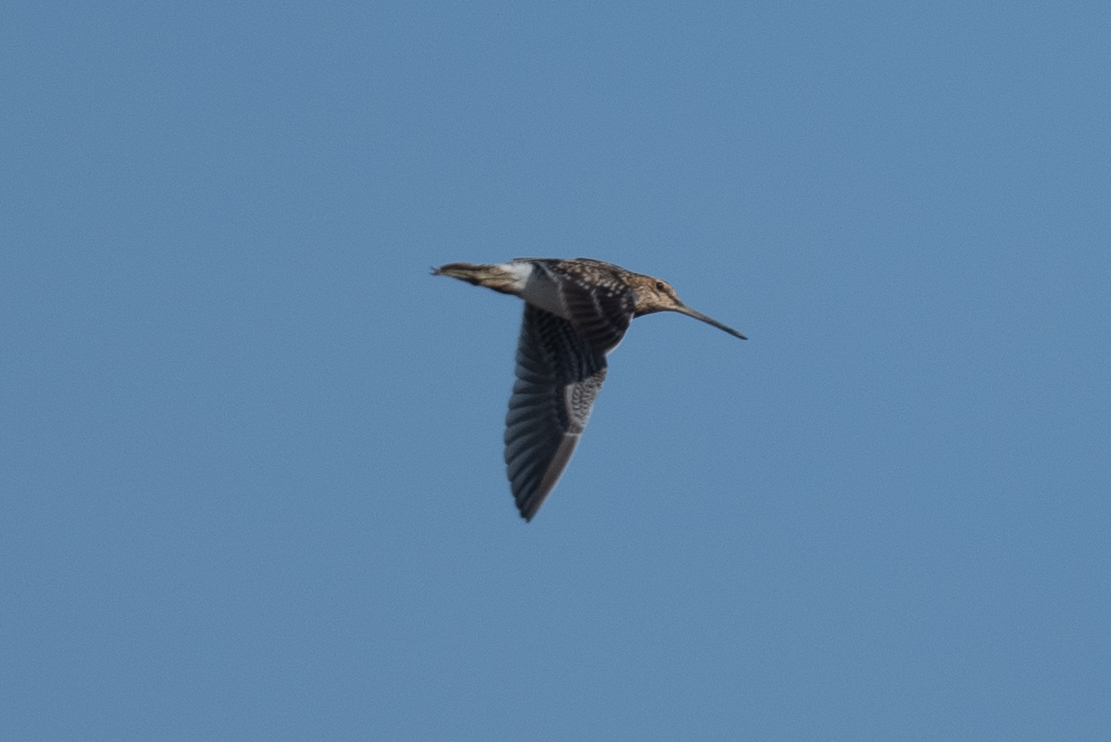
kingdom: Animalia
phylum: Chordata
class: Aves
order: Charadriiformes
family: Scolopacidae
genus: Gallinago
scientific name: Gallinago delicata
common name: Wilson's snipe
